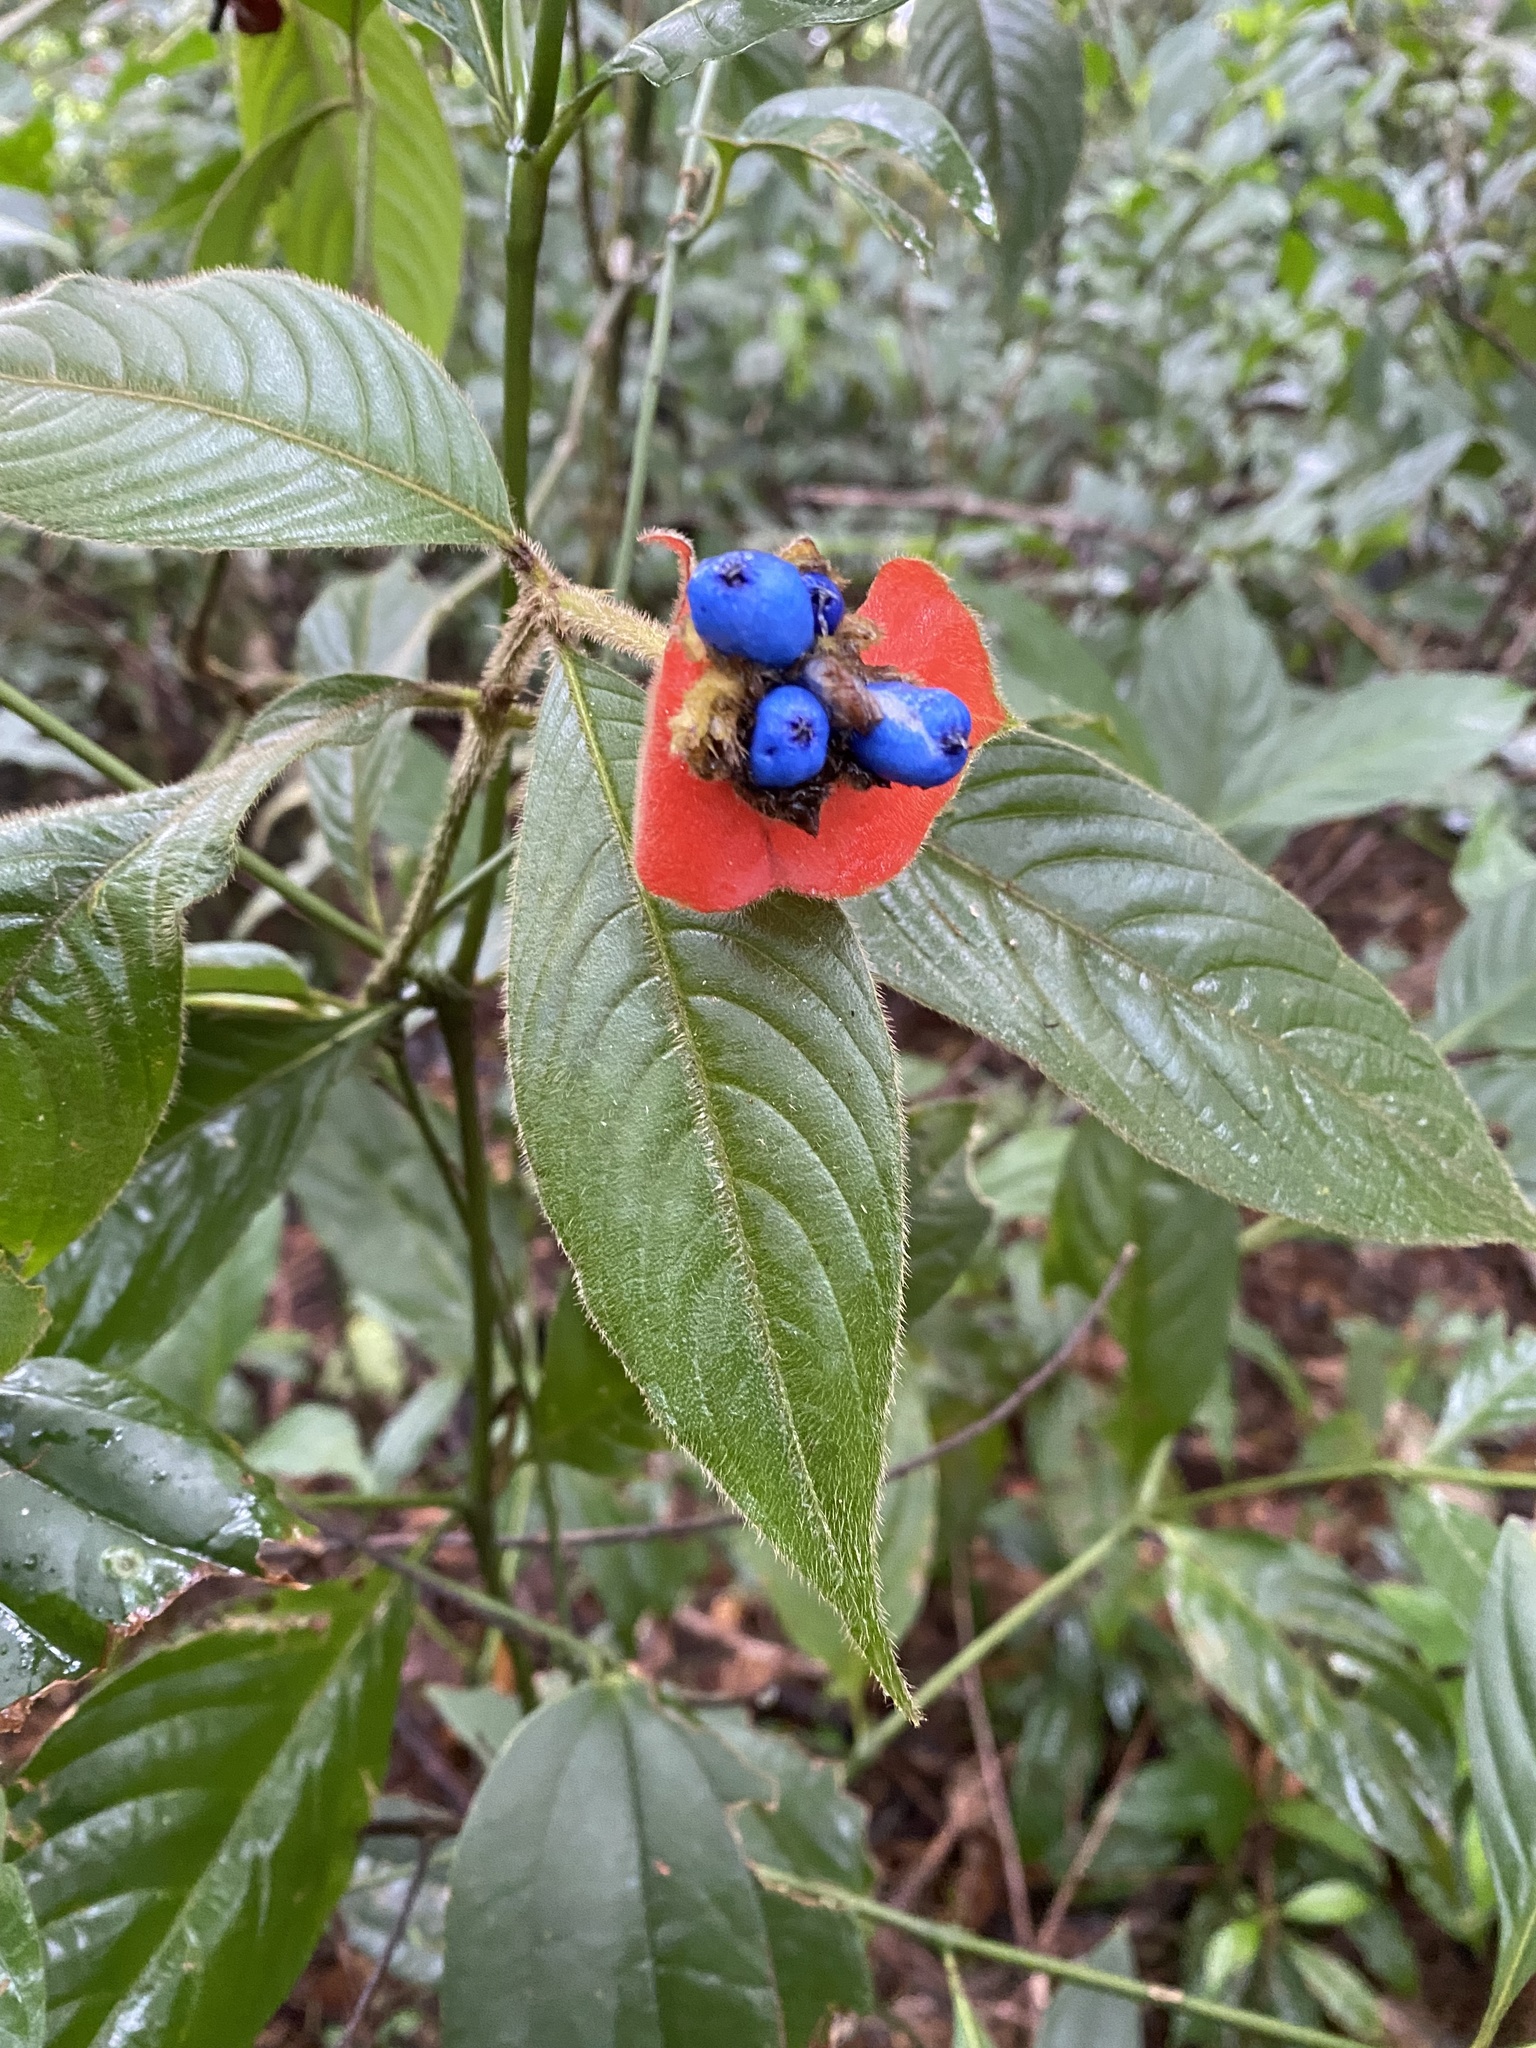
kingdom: Plantae
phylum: Tracheophyta
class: Magnoliopsida
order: Gentianales
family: Rubiaceae
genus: Palicourea
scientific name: Palicourea tomentosa
